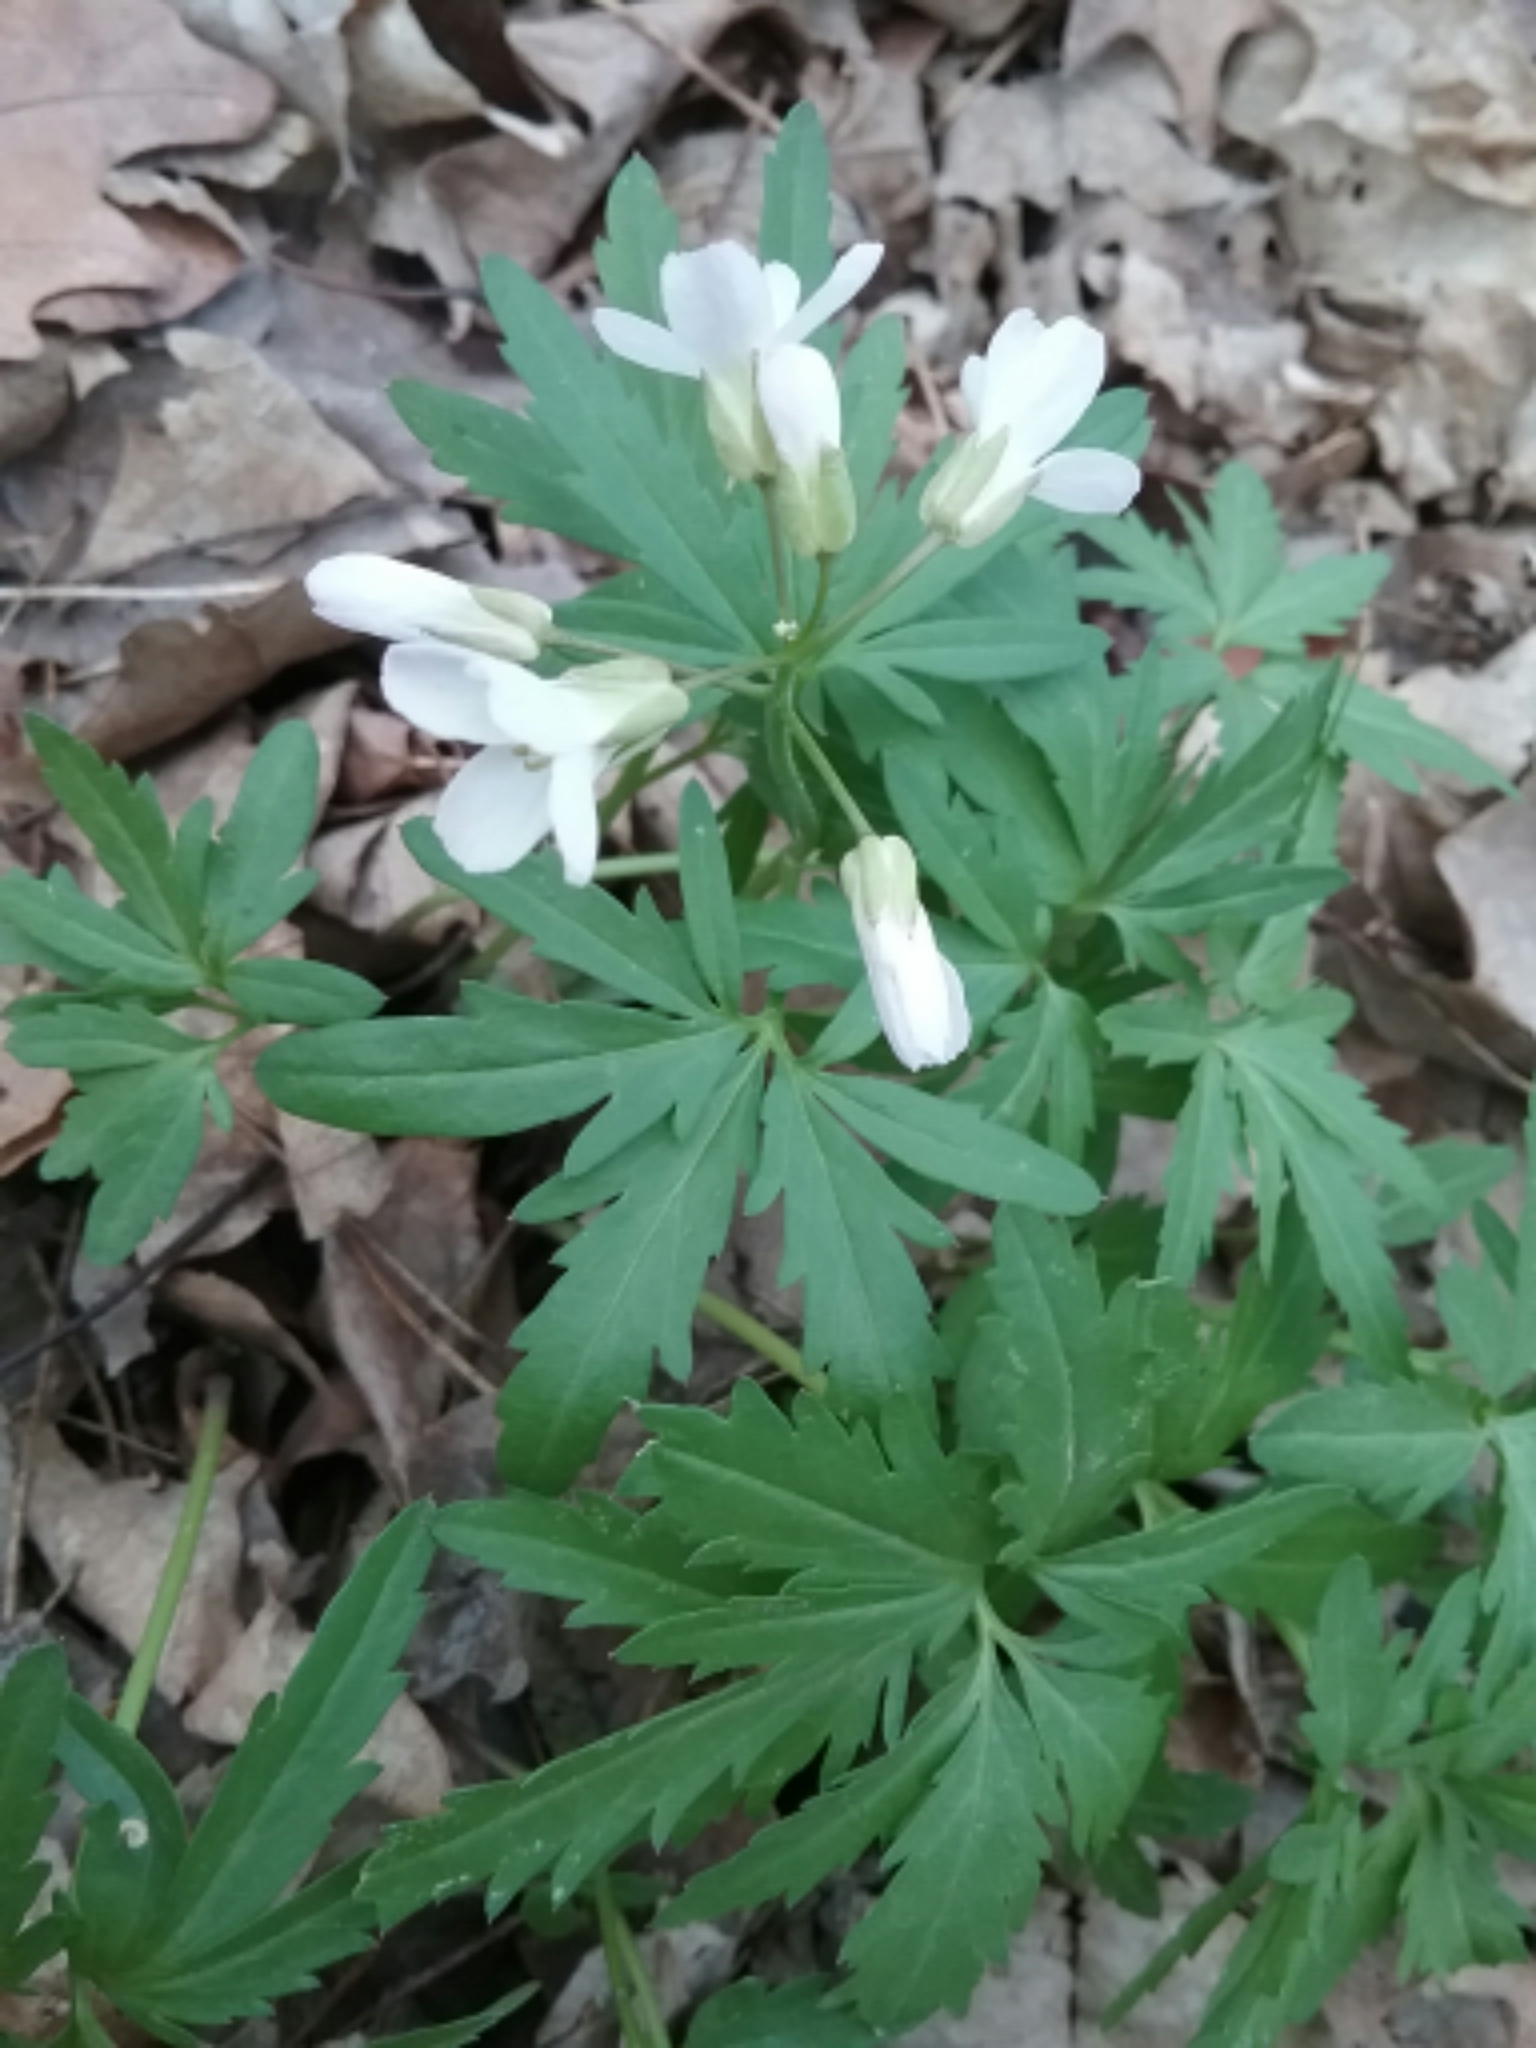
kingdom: Plantae
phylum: Tracheophyta
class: Magnoliopsida
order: Brassicales
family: Brassicaceae
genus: Cardamine
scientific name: Cardamine concatenata
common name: Cut-leaf toothcup
